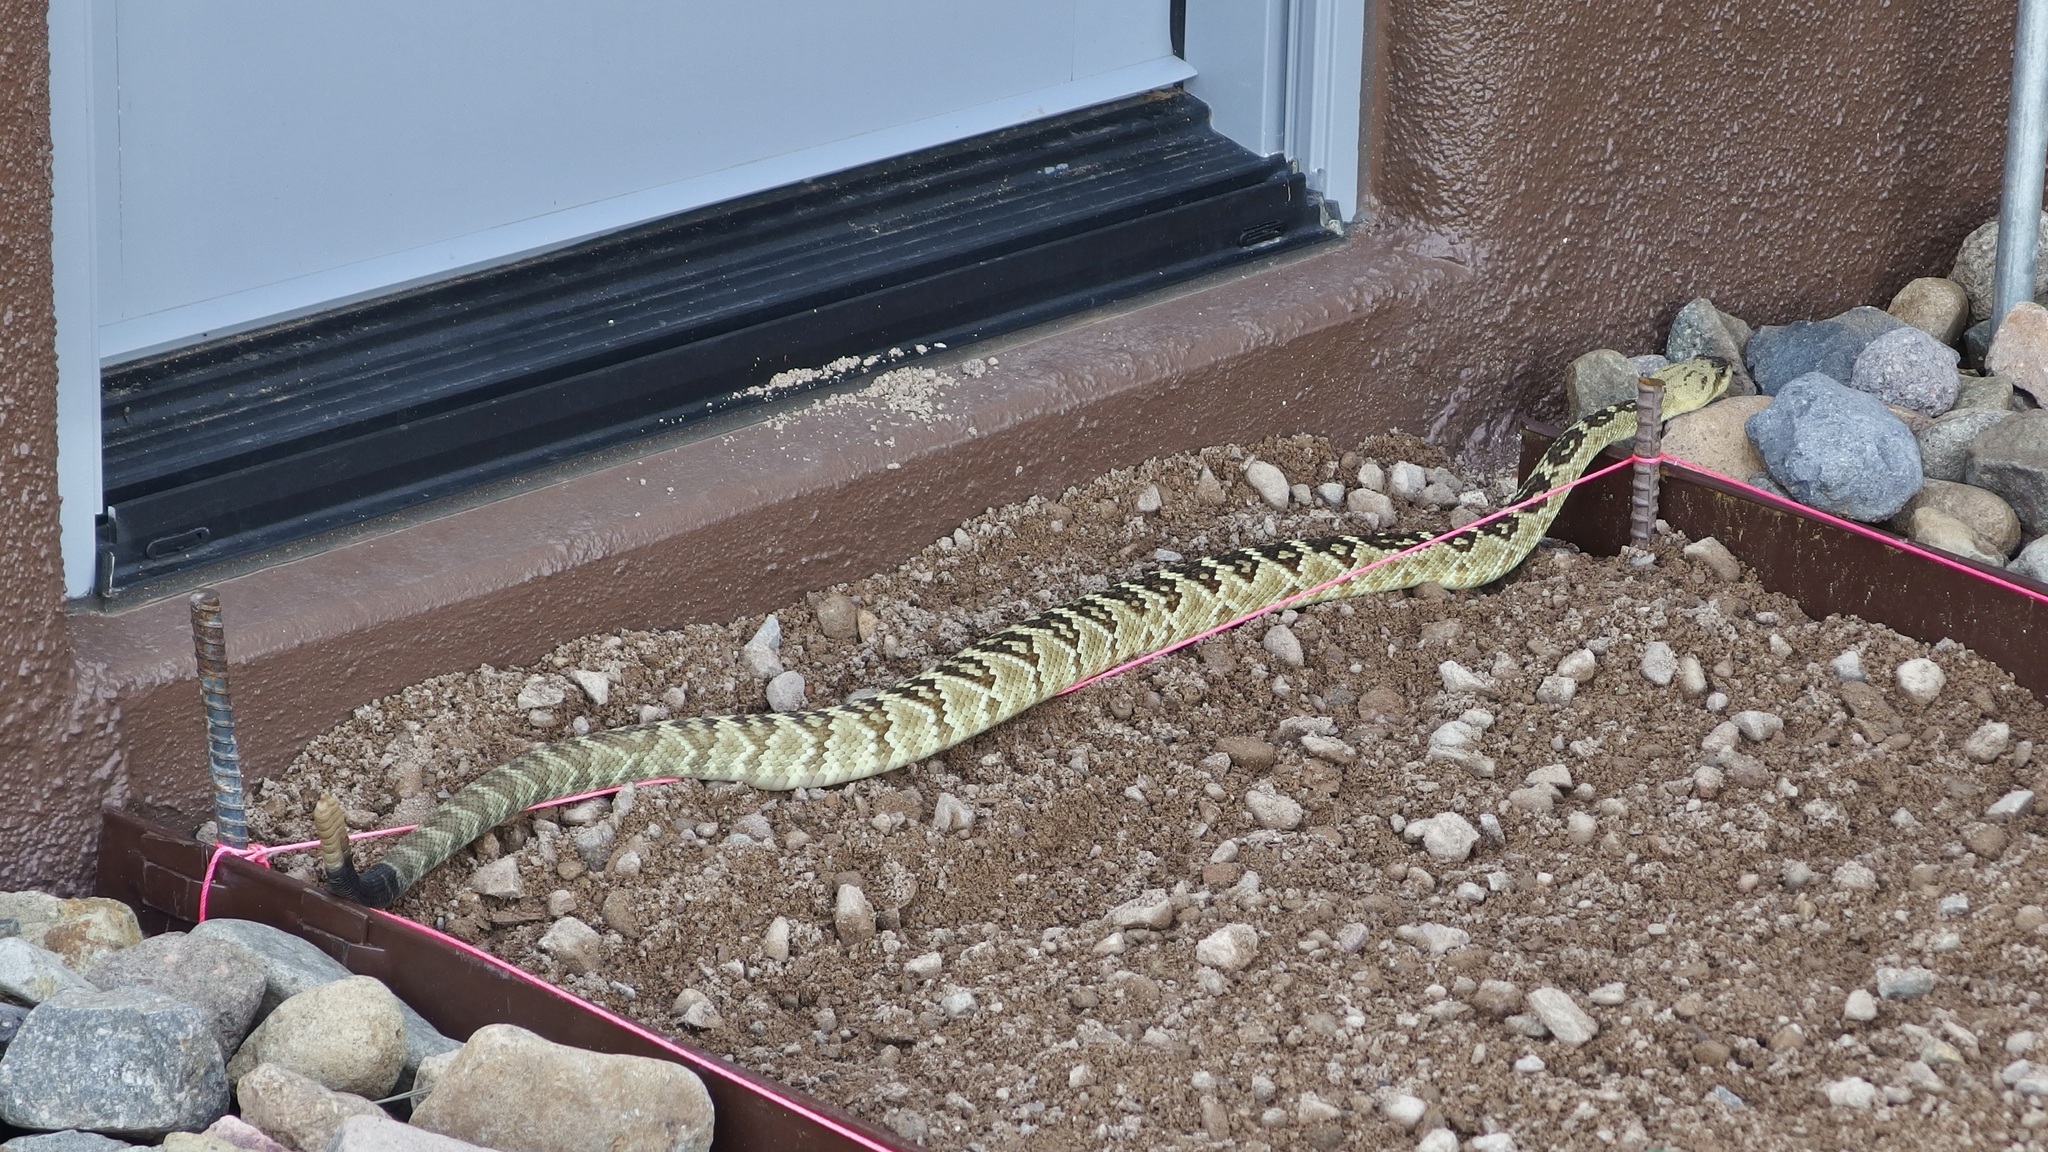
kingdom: Animalia
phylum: Chordata
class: Squamata
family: Viperidae
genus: Crotalus
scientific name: Crotalus molossus
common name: Black tailed rattlesnake
